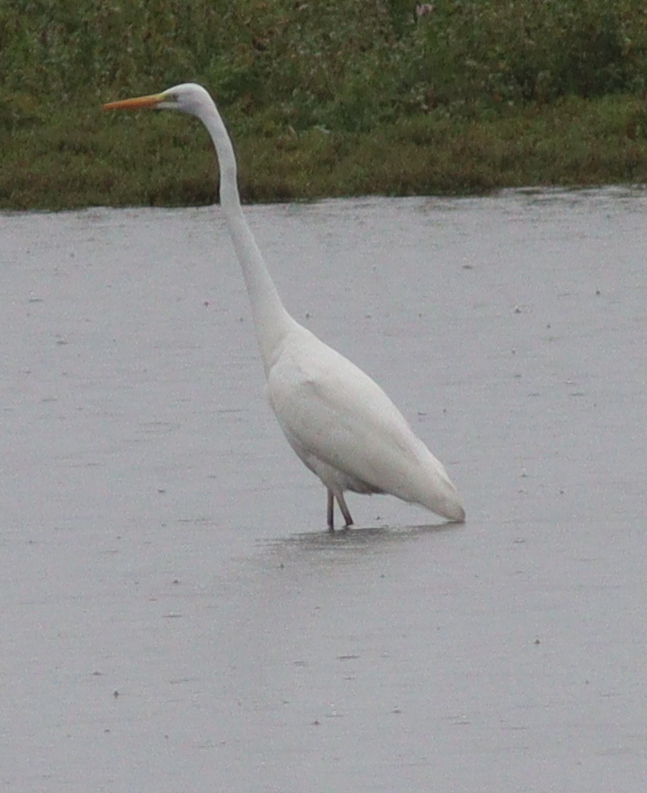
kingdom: Animalia
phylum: Chordata
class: Aves
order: Pelecaniformes
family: Ardeidae
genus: Ardea
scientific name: Ardea alba
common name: Great egret
